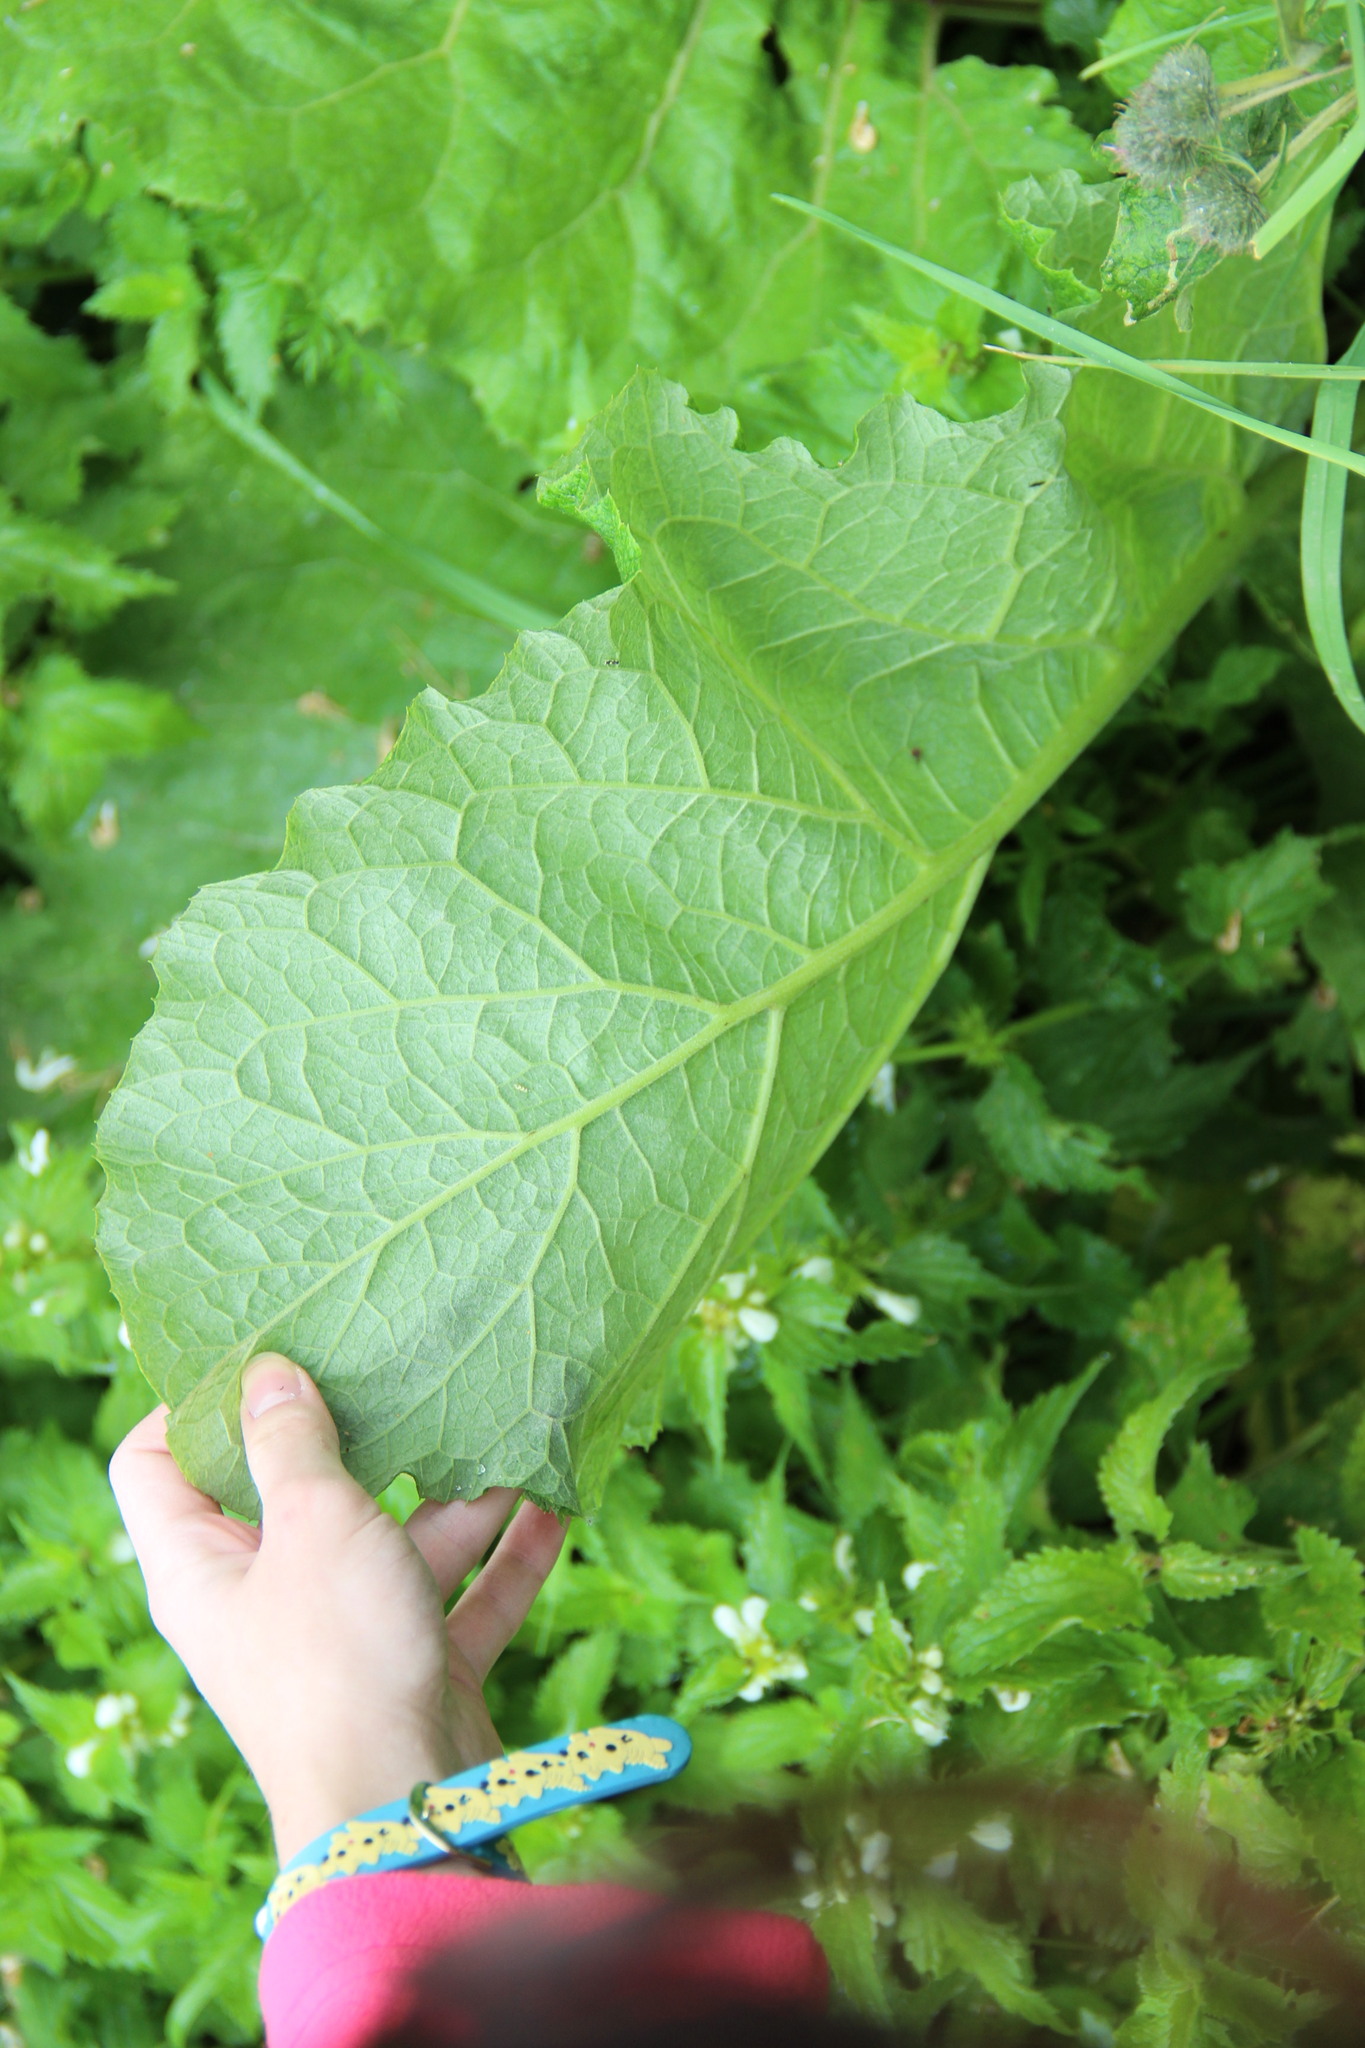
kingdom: Plantae
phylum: Tracheophyta
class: Magnoliopsida
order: Asterales
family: Asteraceae
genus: Arctium
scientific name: Arctium tomentosum
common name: Woolly burdock
